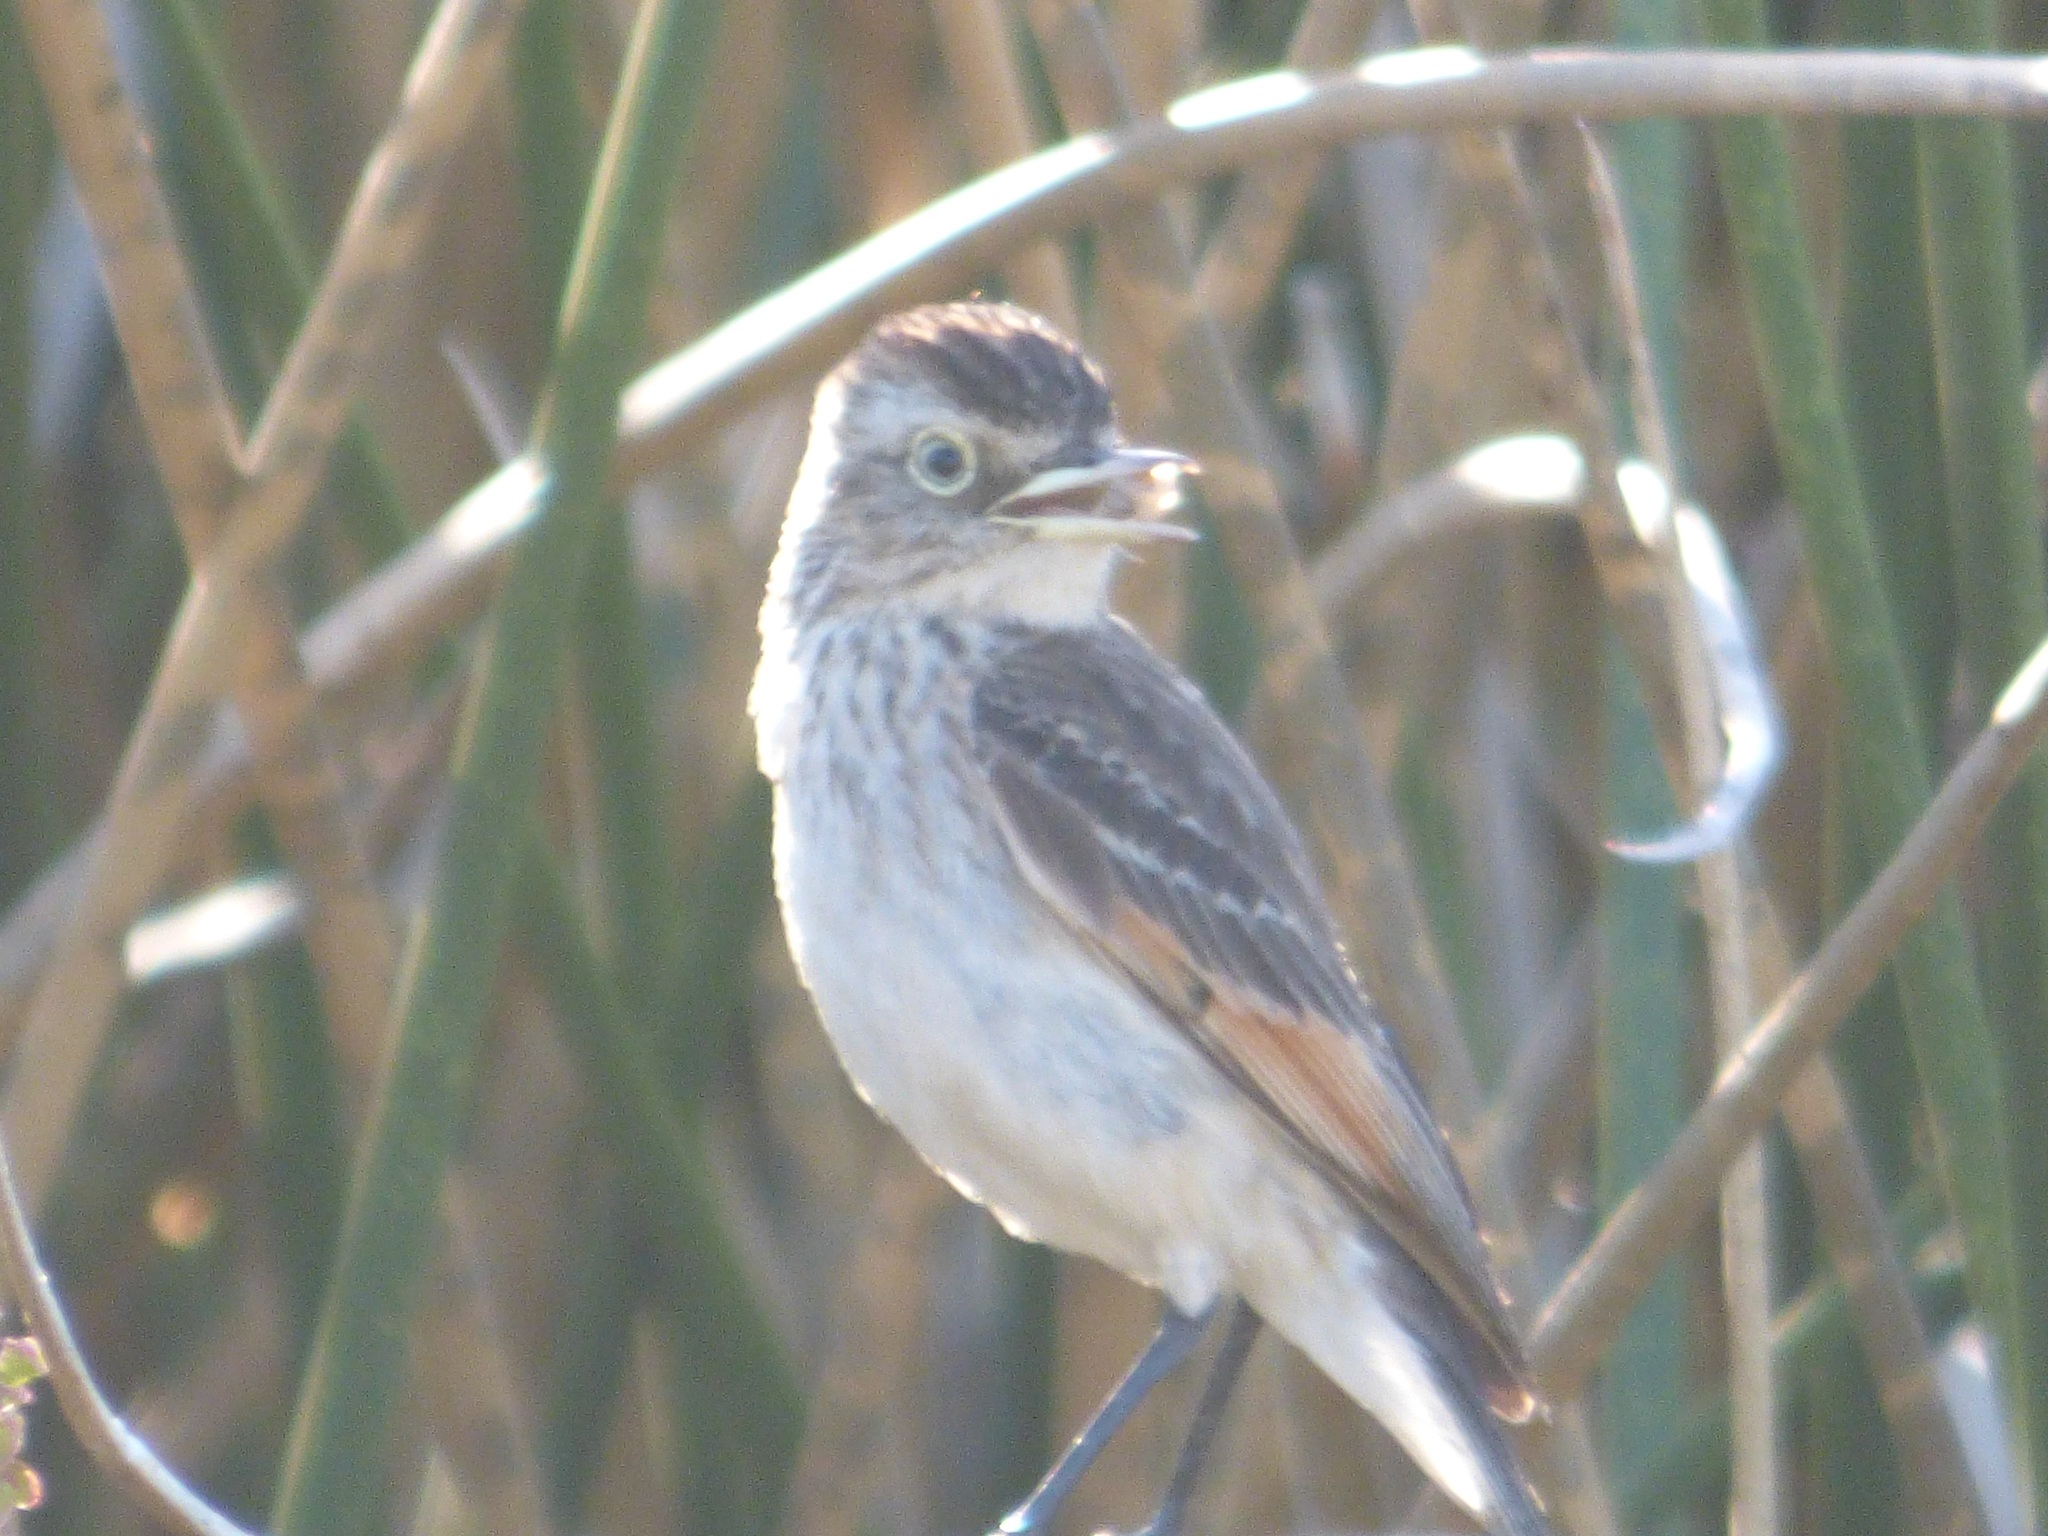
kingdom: Animalia
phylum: Chordata
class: Aves
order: Passeriformes
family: Tyrannidae
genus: Hymenops
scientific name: Hymenops perspicillatus
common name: Spectacled tyrant
